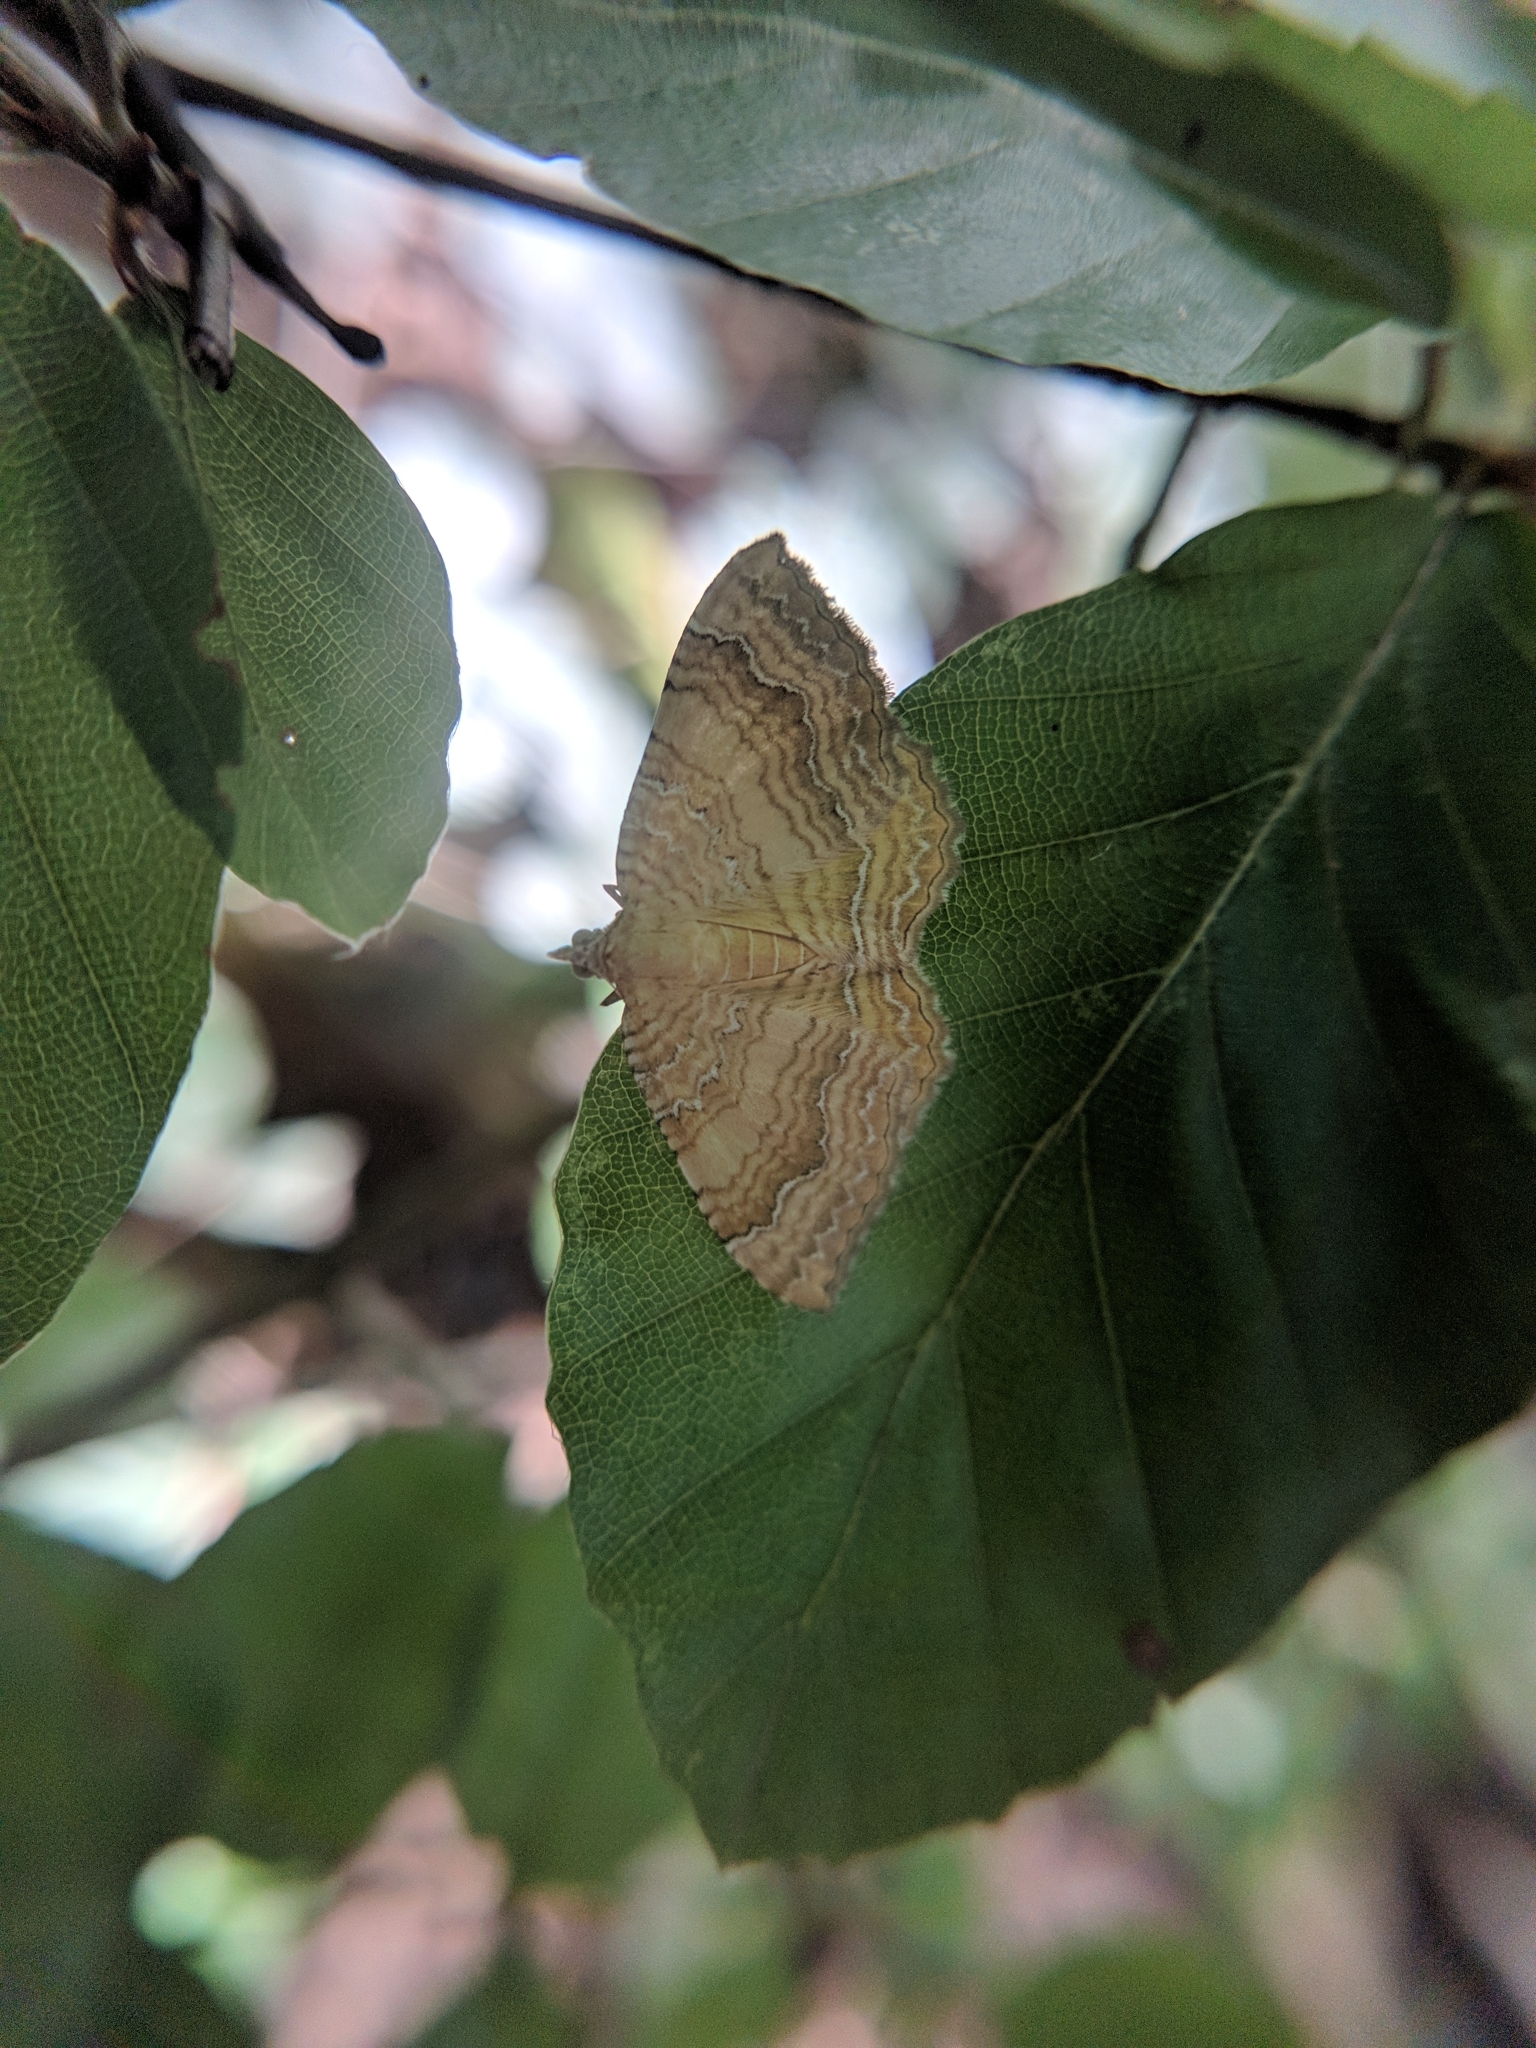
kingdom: Animalia
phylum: Arthropoda
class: Insecta
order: Lepidoptera
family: Geometridae
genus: Camptogramma
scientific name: Camptogramma bilineata
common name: Yellow shell
